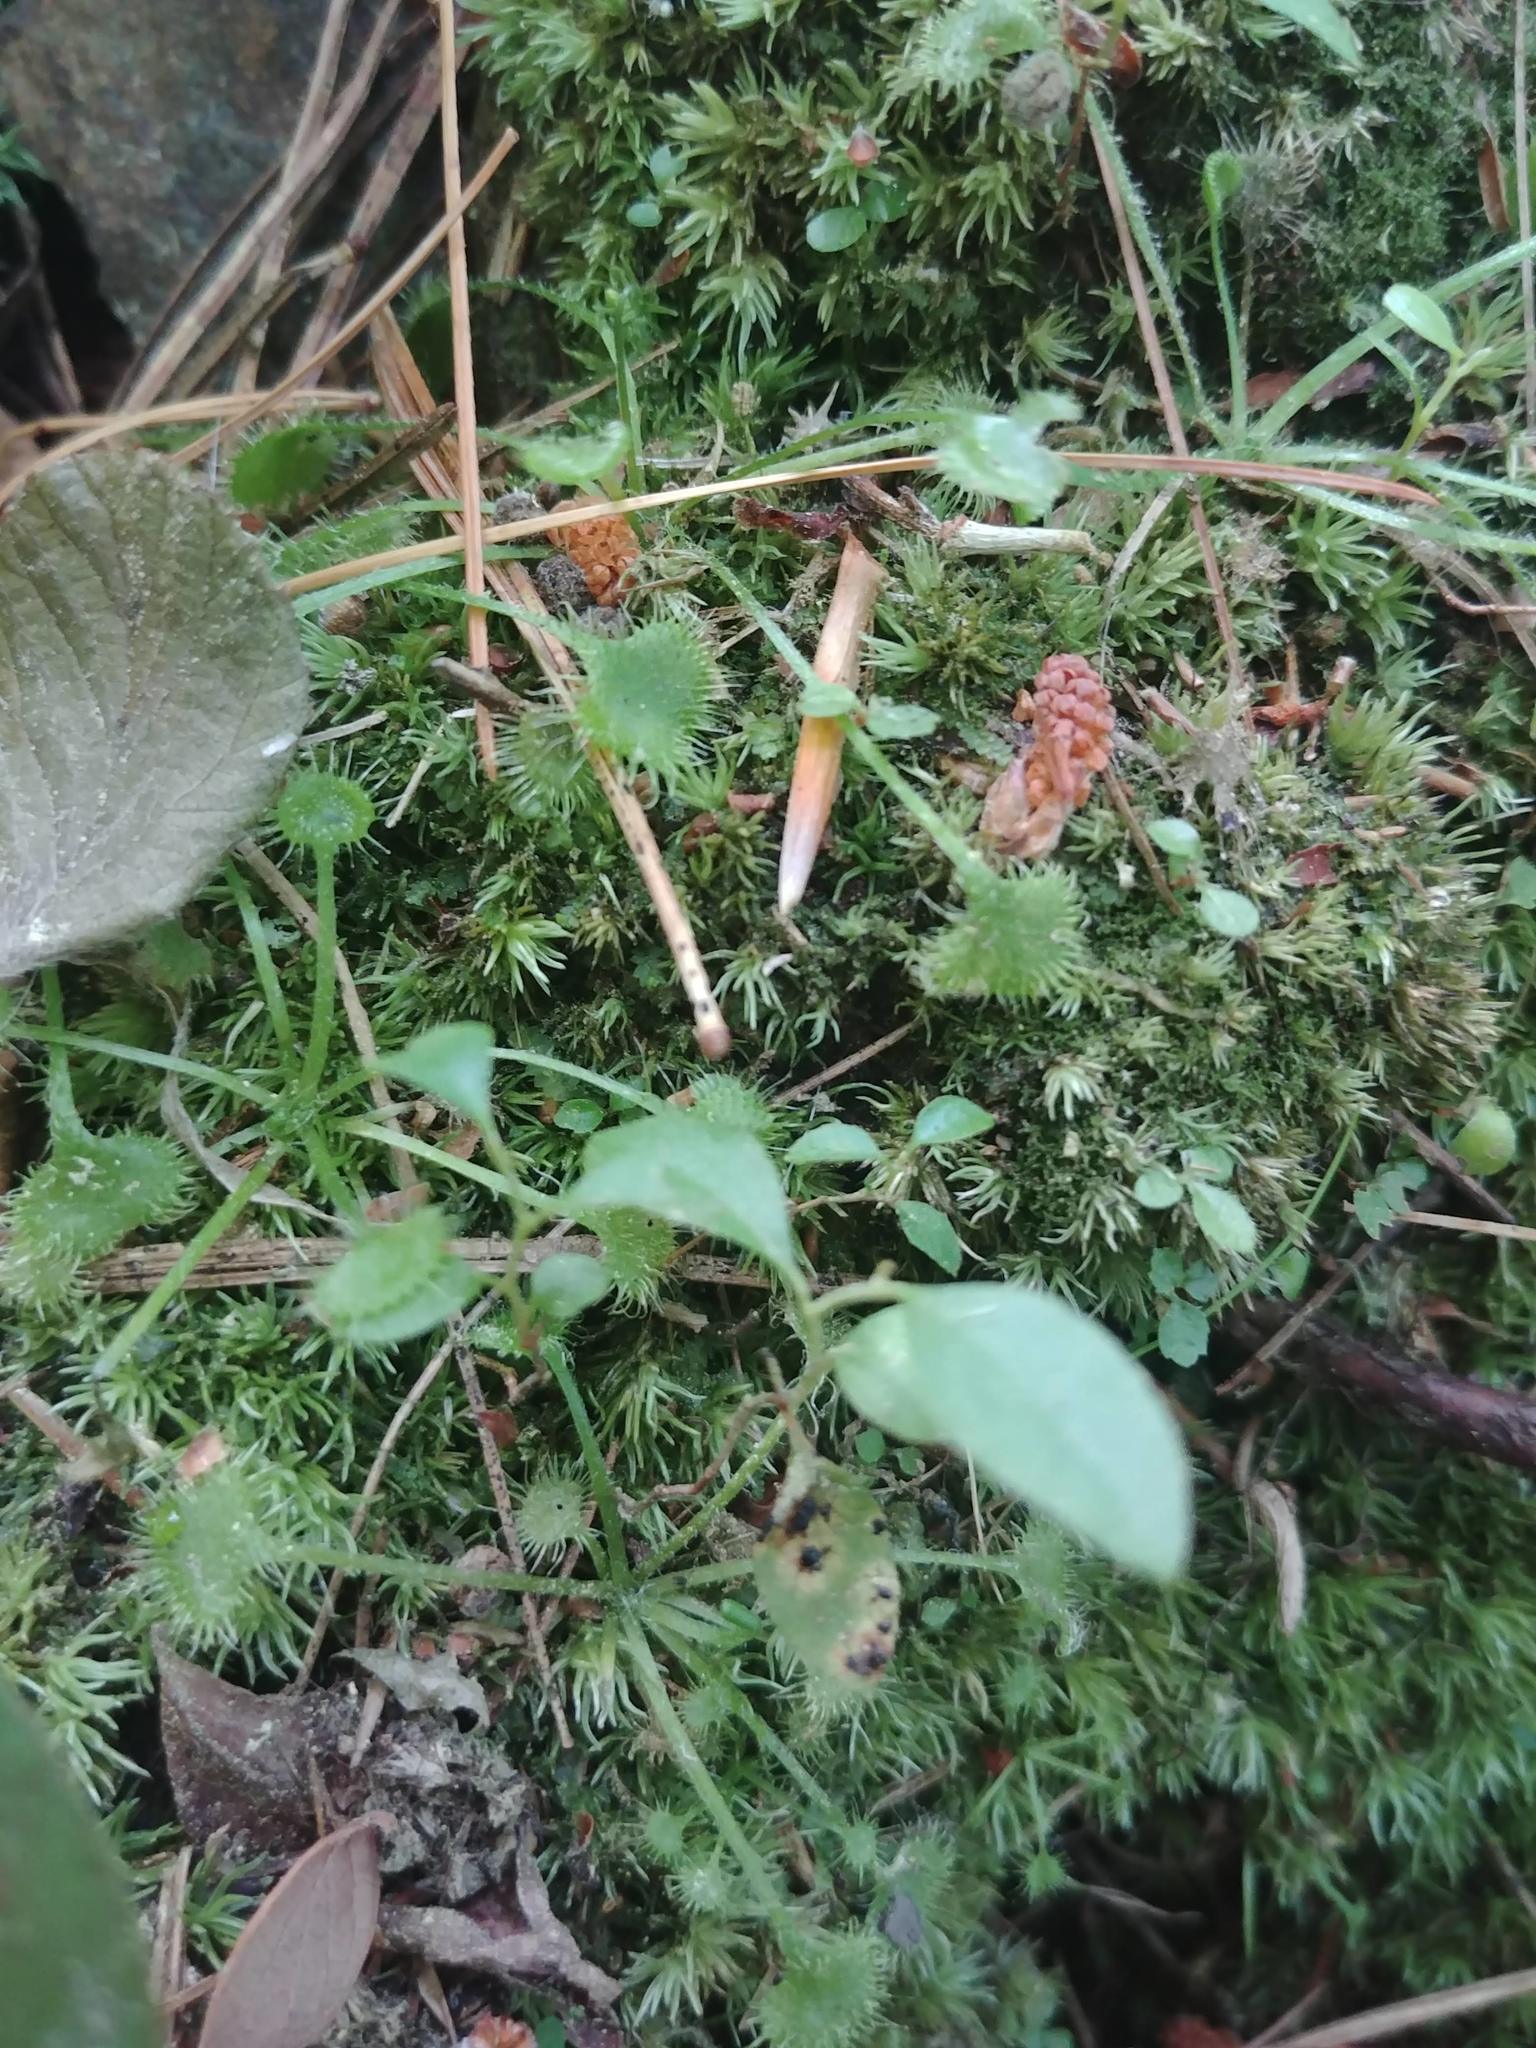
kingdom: Plantae
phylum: Tracheophyta
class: Magnoliopsida
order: Caryophyllales
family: Droseraceae
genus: Drosera
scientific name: Drosera rotundifolia
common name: Round-leaved sundew
